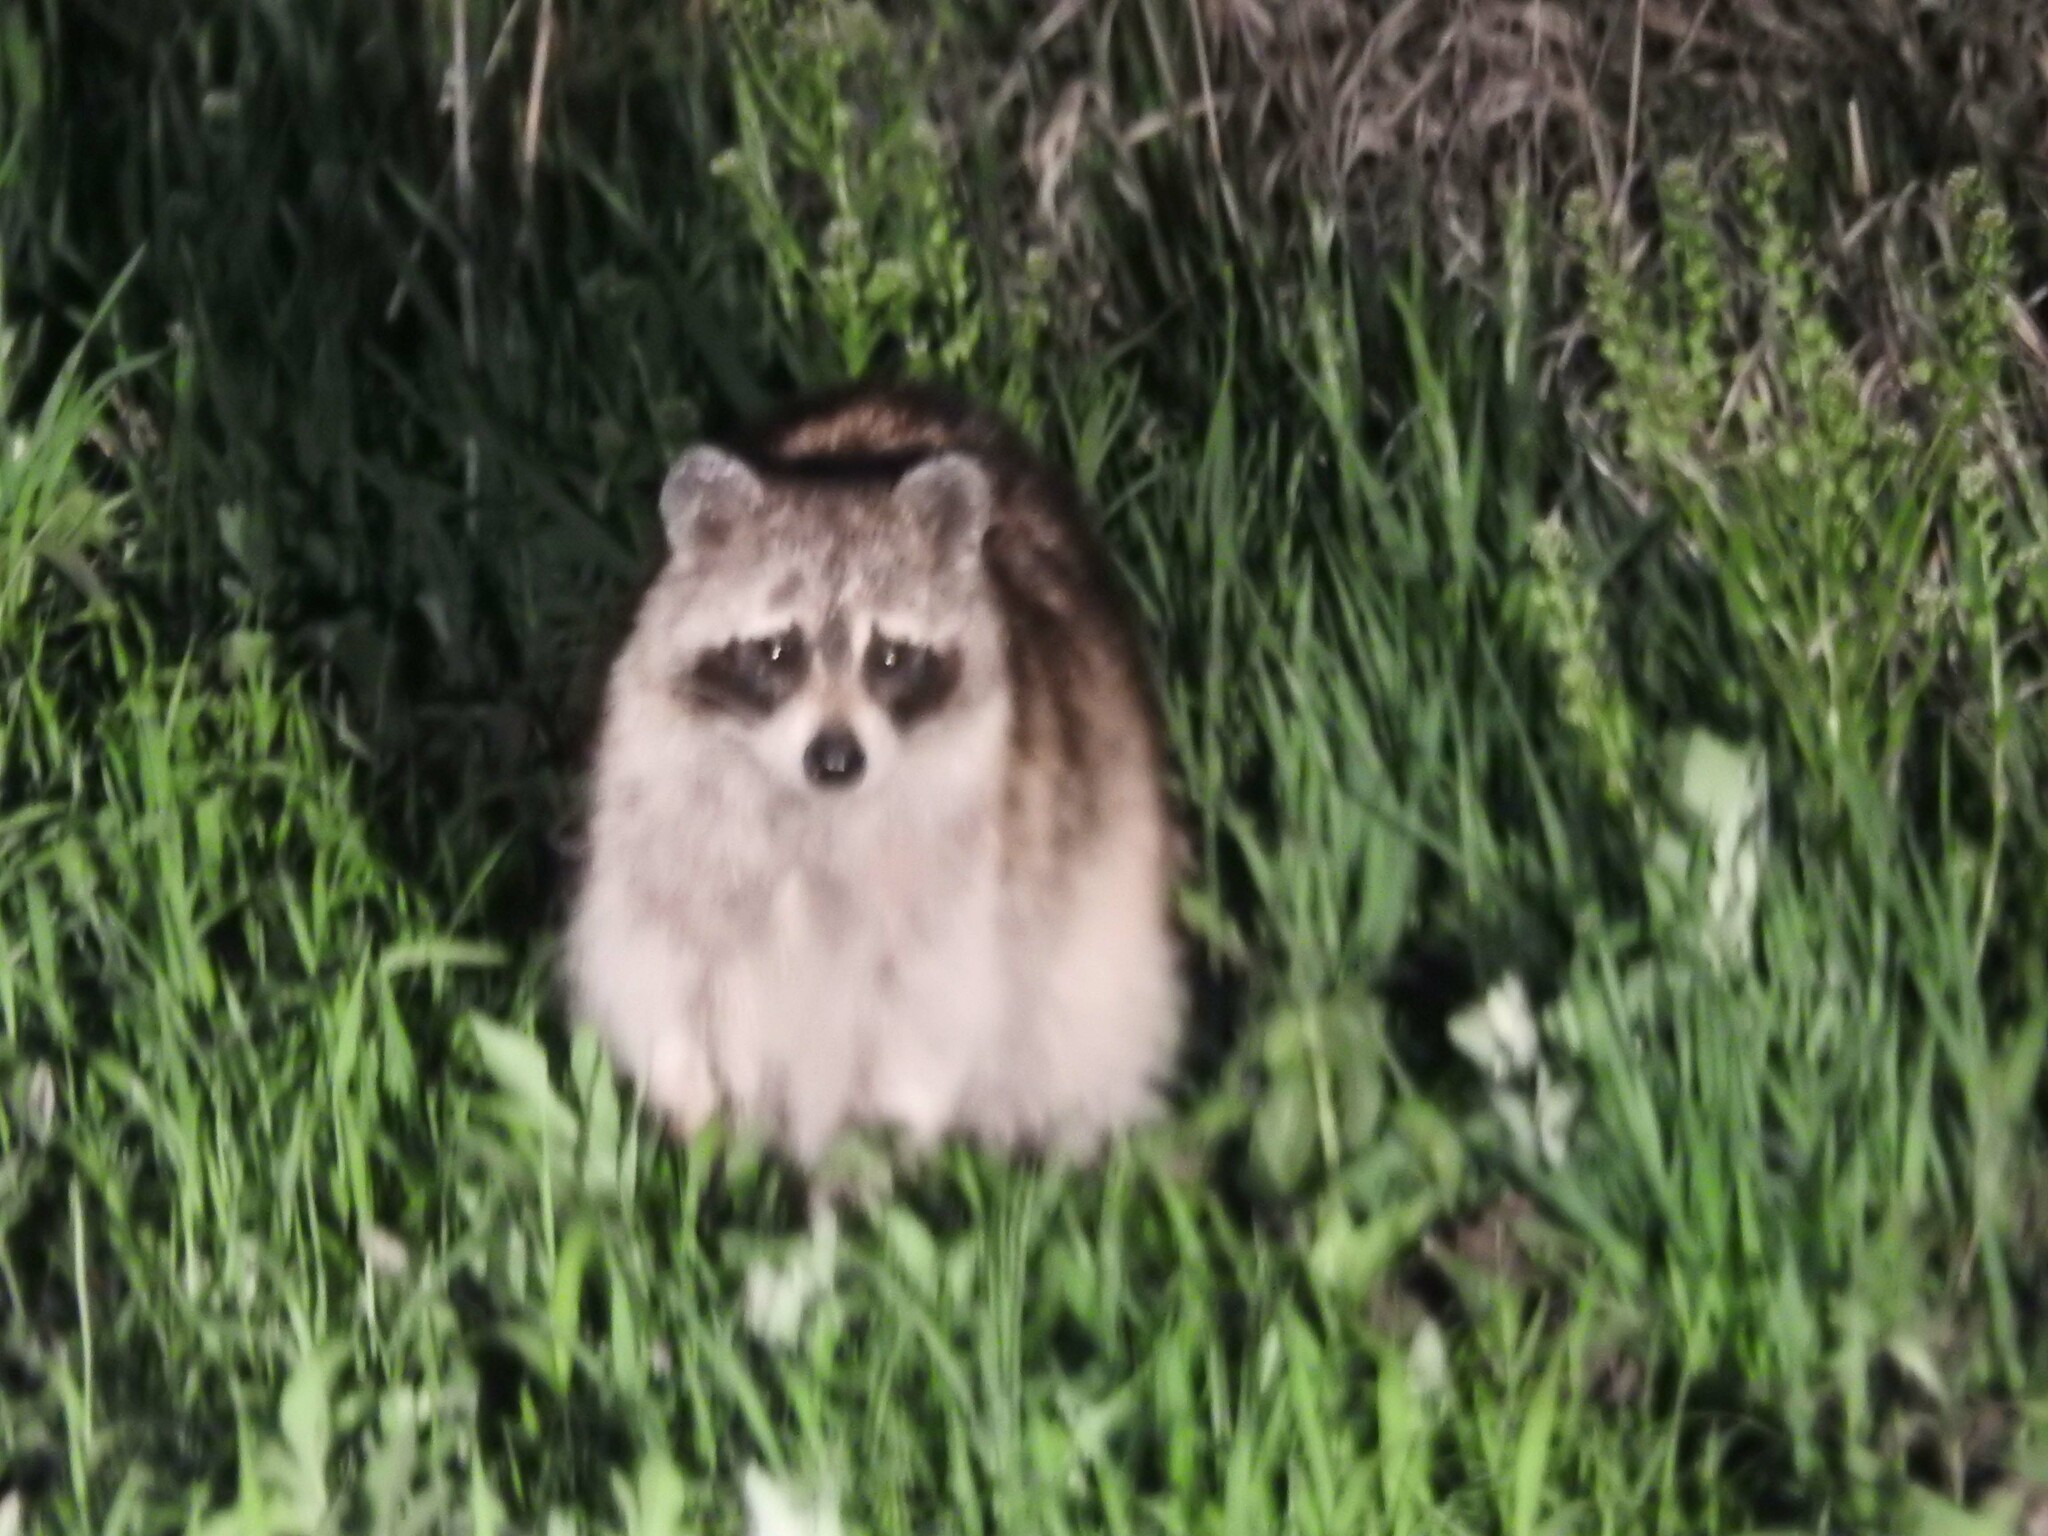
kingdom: Animalia
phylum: Chordata
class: Mammalia
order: Carnivora
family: Procyonidae
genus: Procyon
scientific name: Procyon lotor
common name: Raccoon
